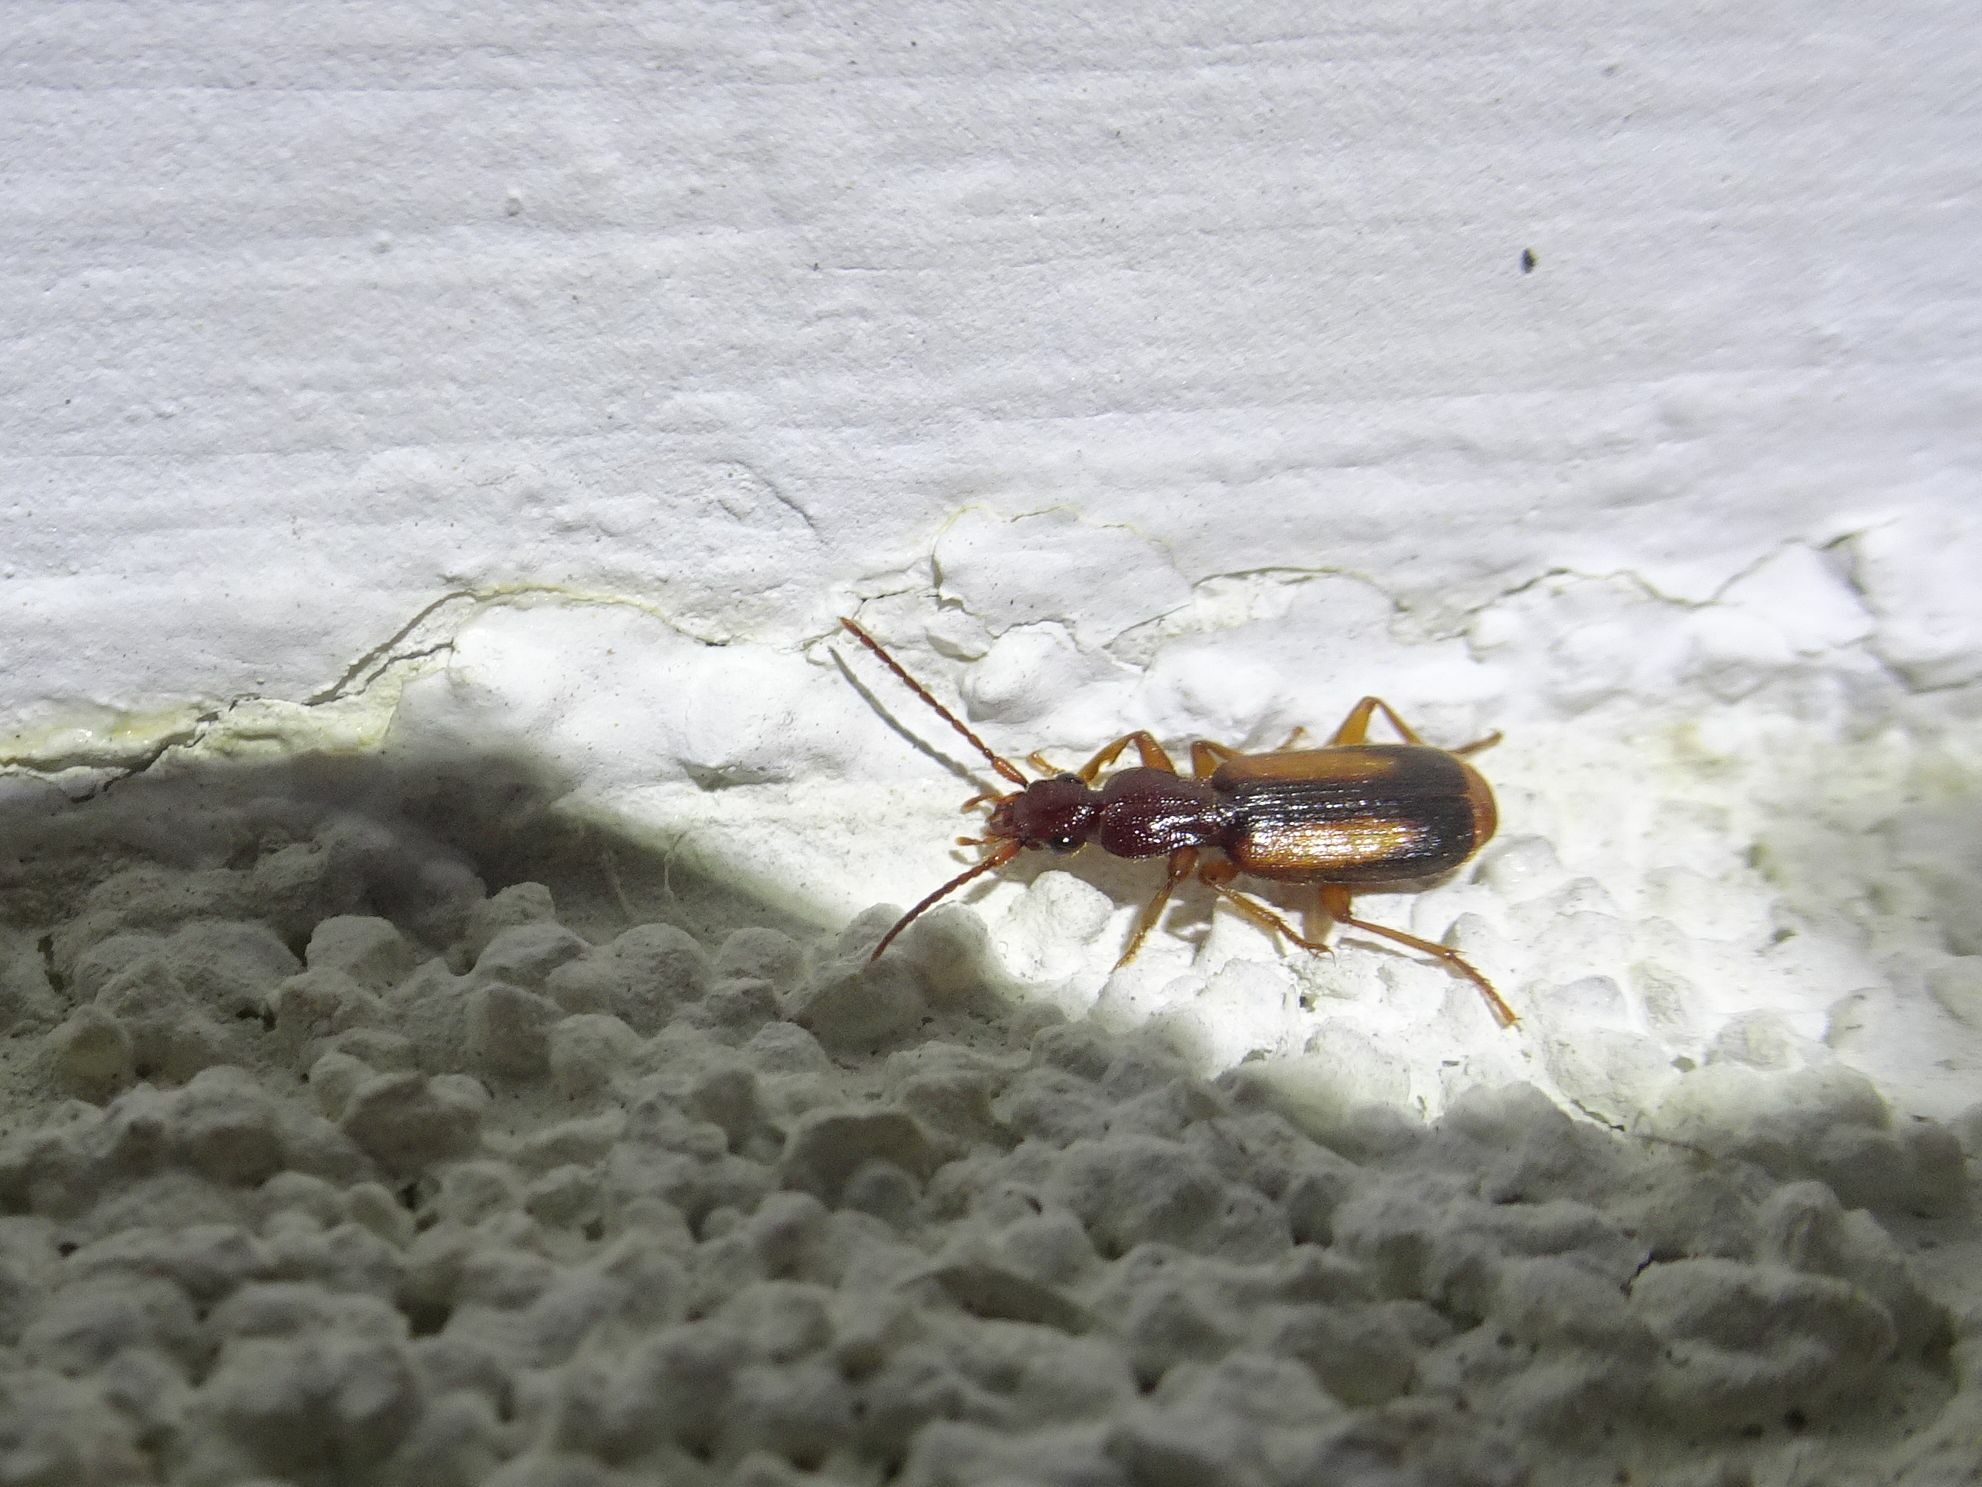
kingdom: Animalia
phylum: Arthropoda
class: Insecta
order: Coleoptera
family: Carabidae
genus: Polistichus
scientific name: Polistichus connexus
